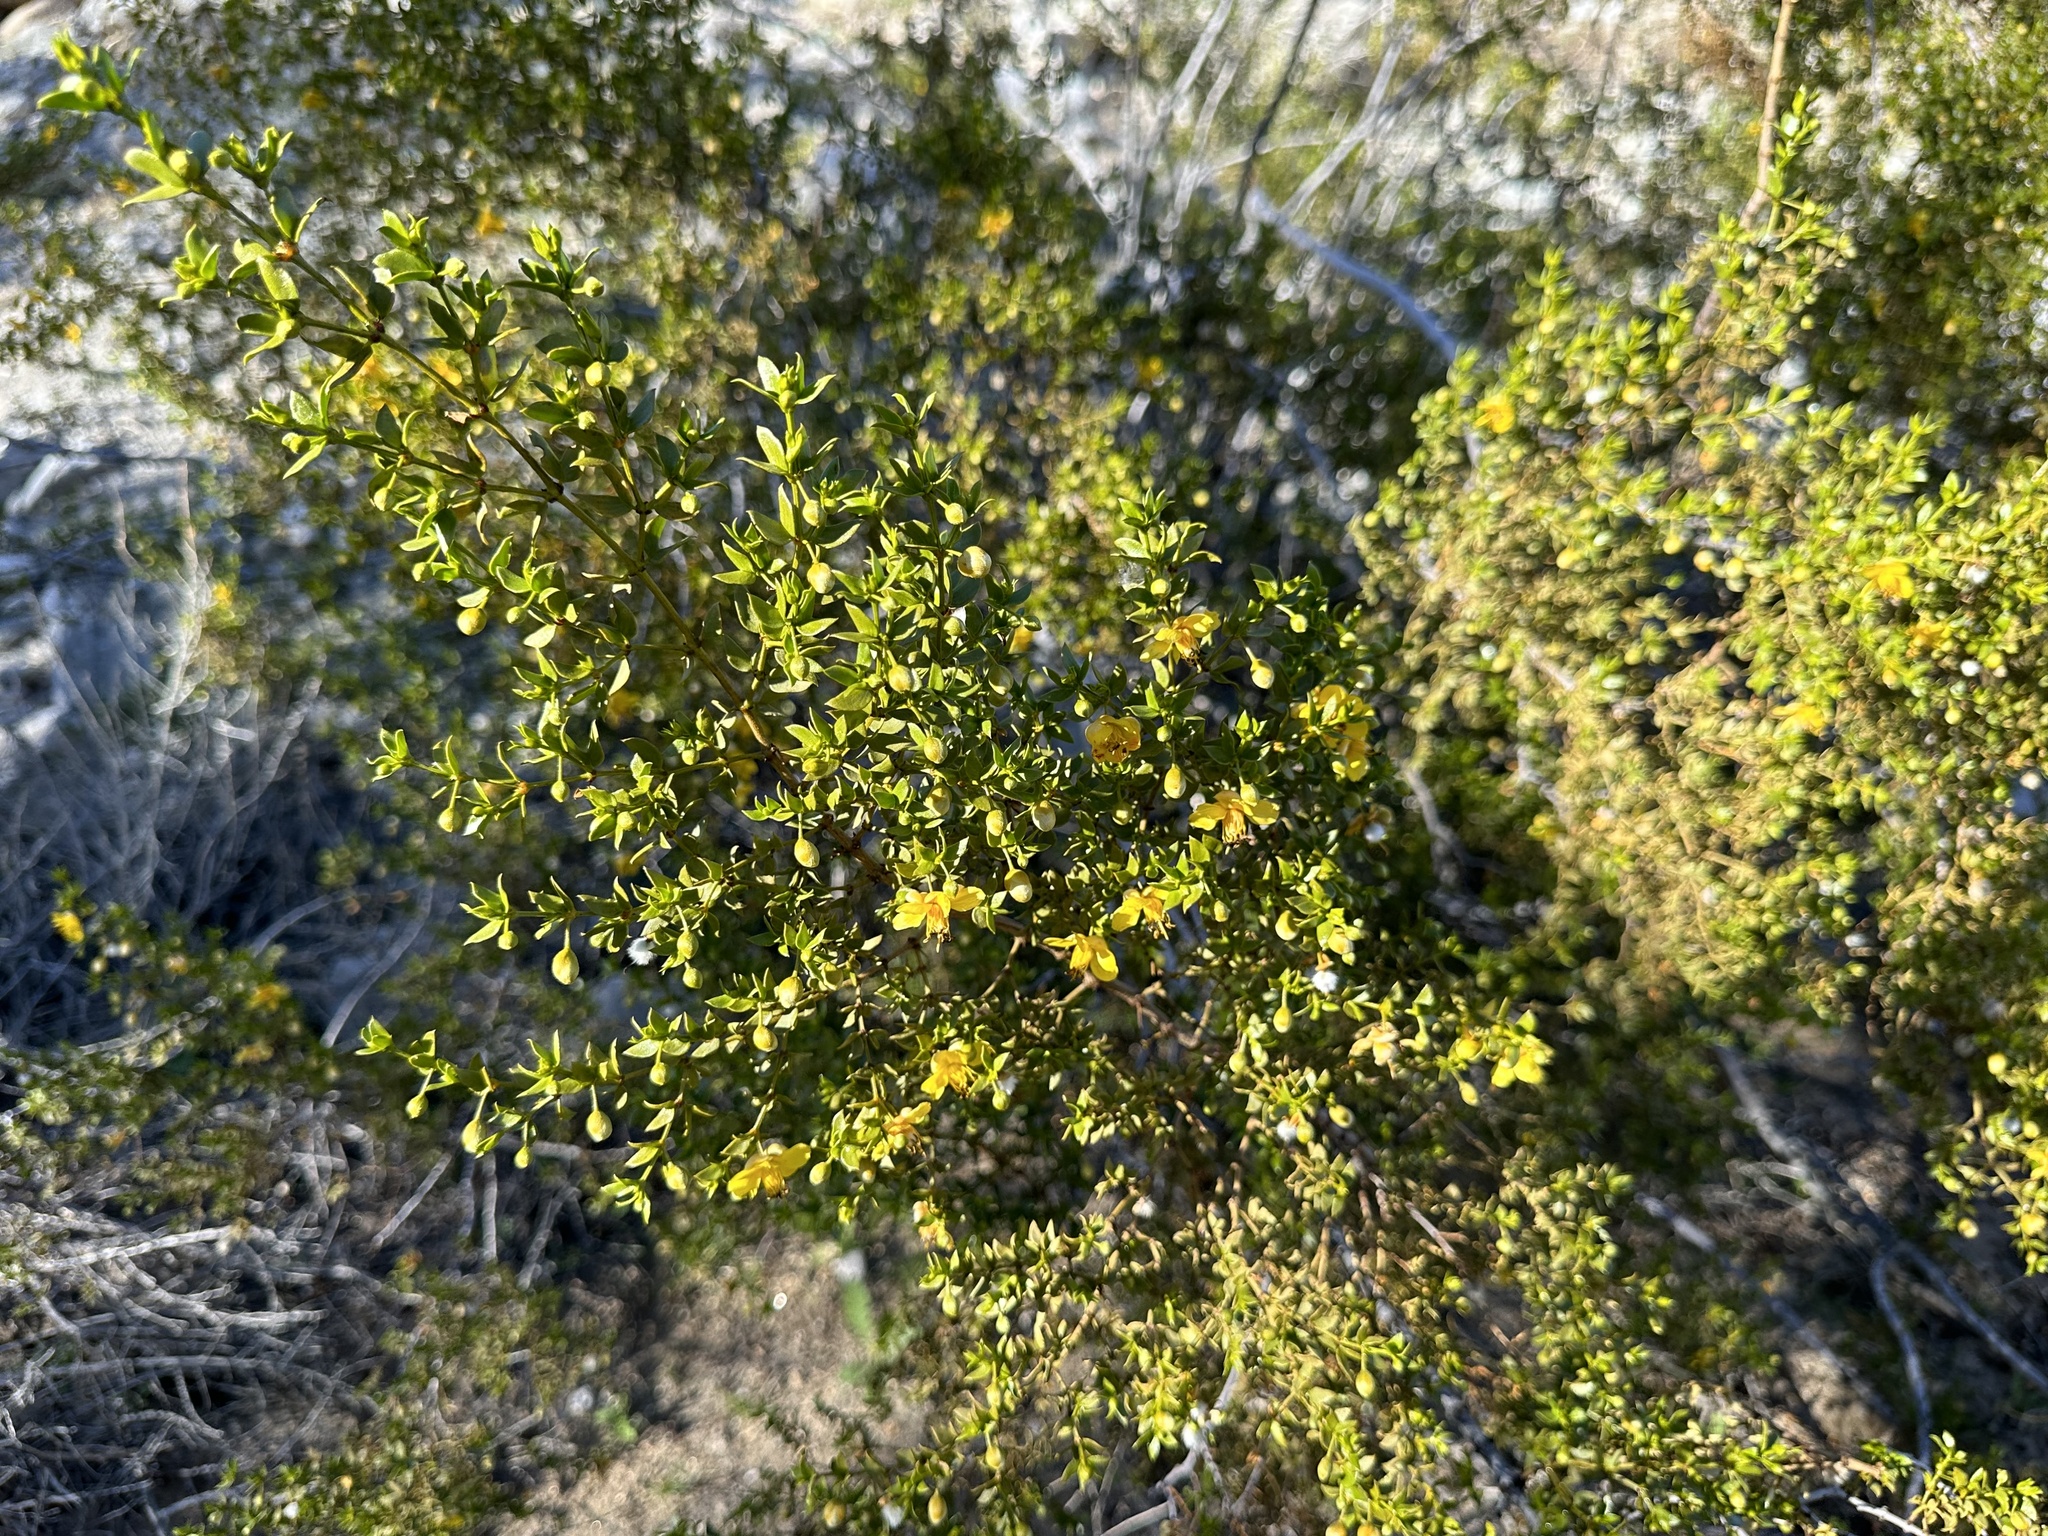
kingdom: Plantae
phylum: Tracheophyta
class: Magnoliopsida
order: Zygophyllales
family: Zygophyllaceae
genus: Larrea
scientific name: Larrea tridentata
